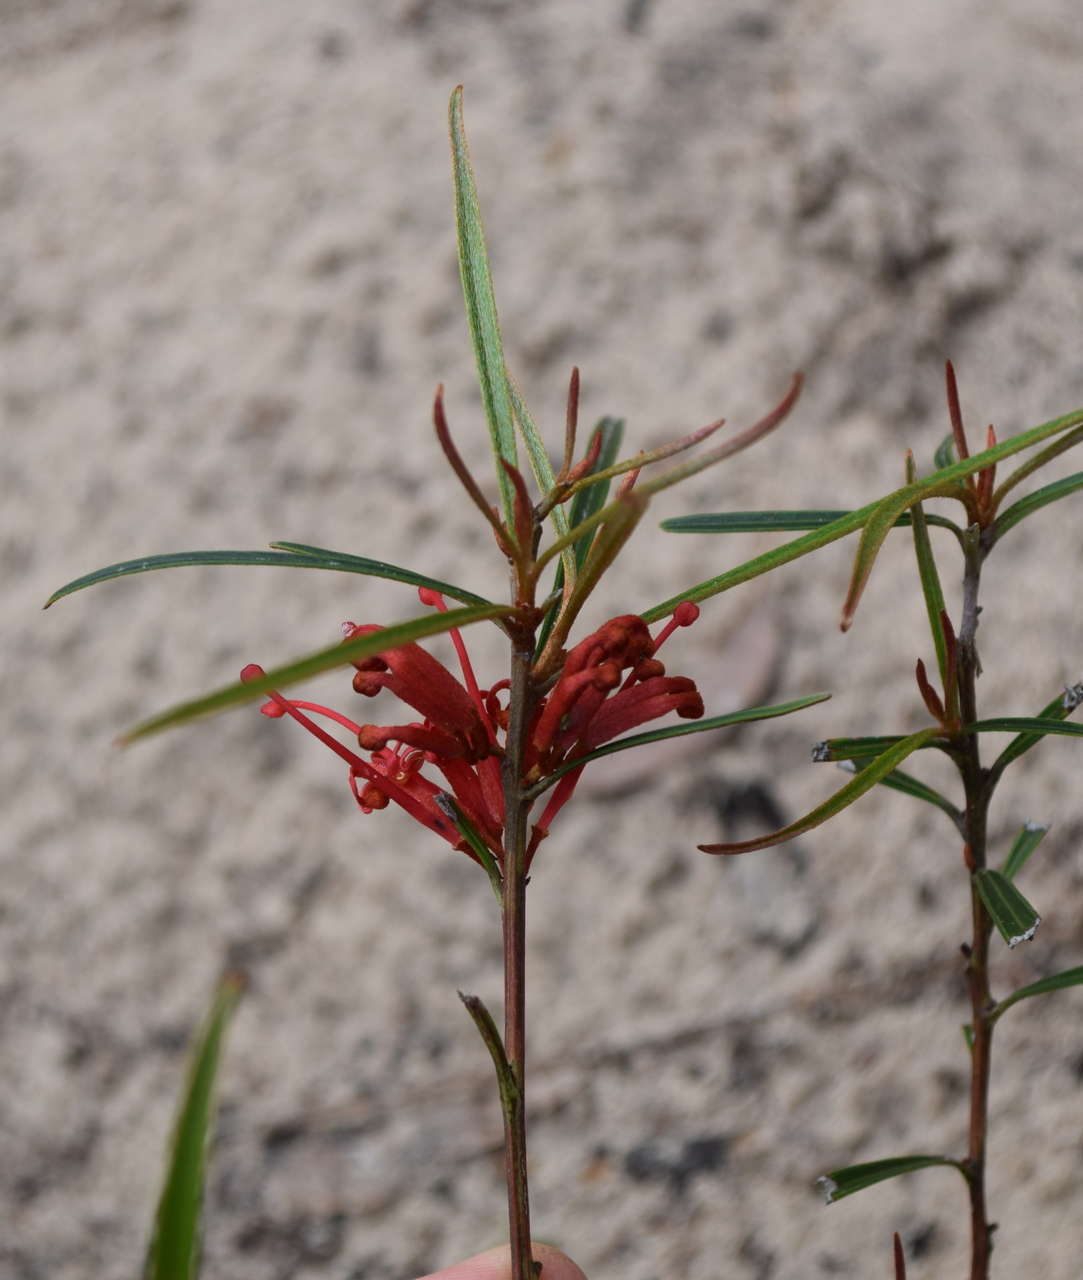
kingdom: Plantae
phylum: Tracheophyta
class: Magnoliopsida
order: Proteales
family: Proteaceae
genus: Grevillea
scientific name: Grevillea dimorpha
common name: Flame grevillea
